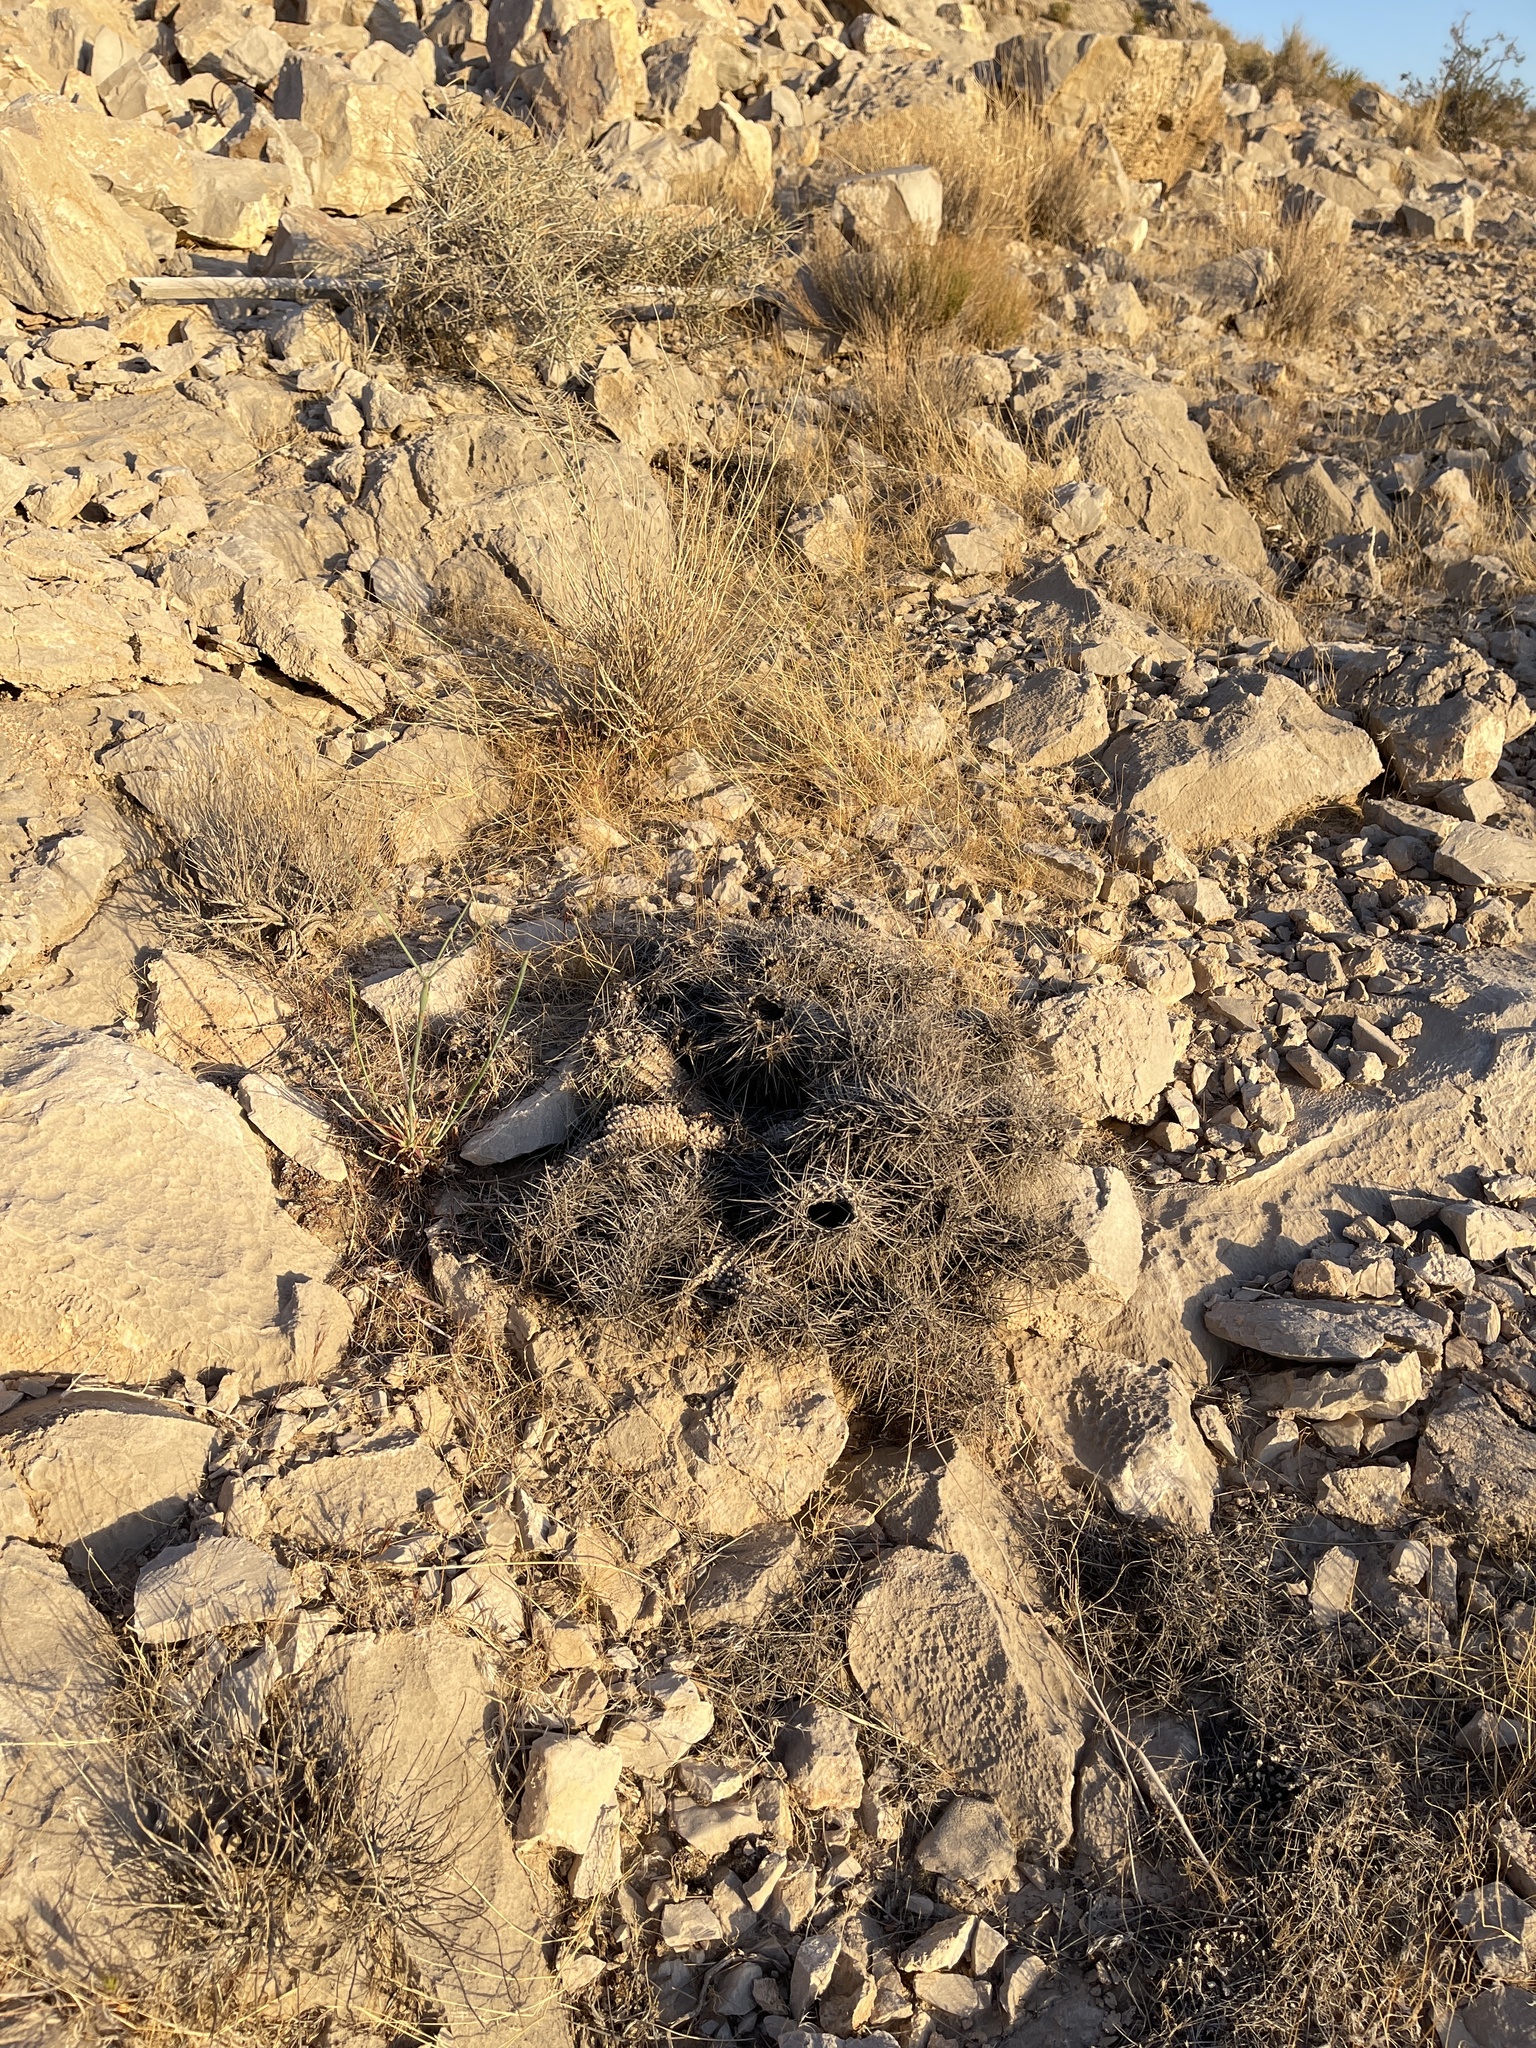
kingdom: Plantae
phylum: Tracheophyta
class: Magnoliopsida
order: Caryophyllales
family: Cactaceae
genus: Echinocereus
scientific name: Echinocereus engelmannii
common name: Engelmann's hedgehog cactus
